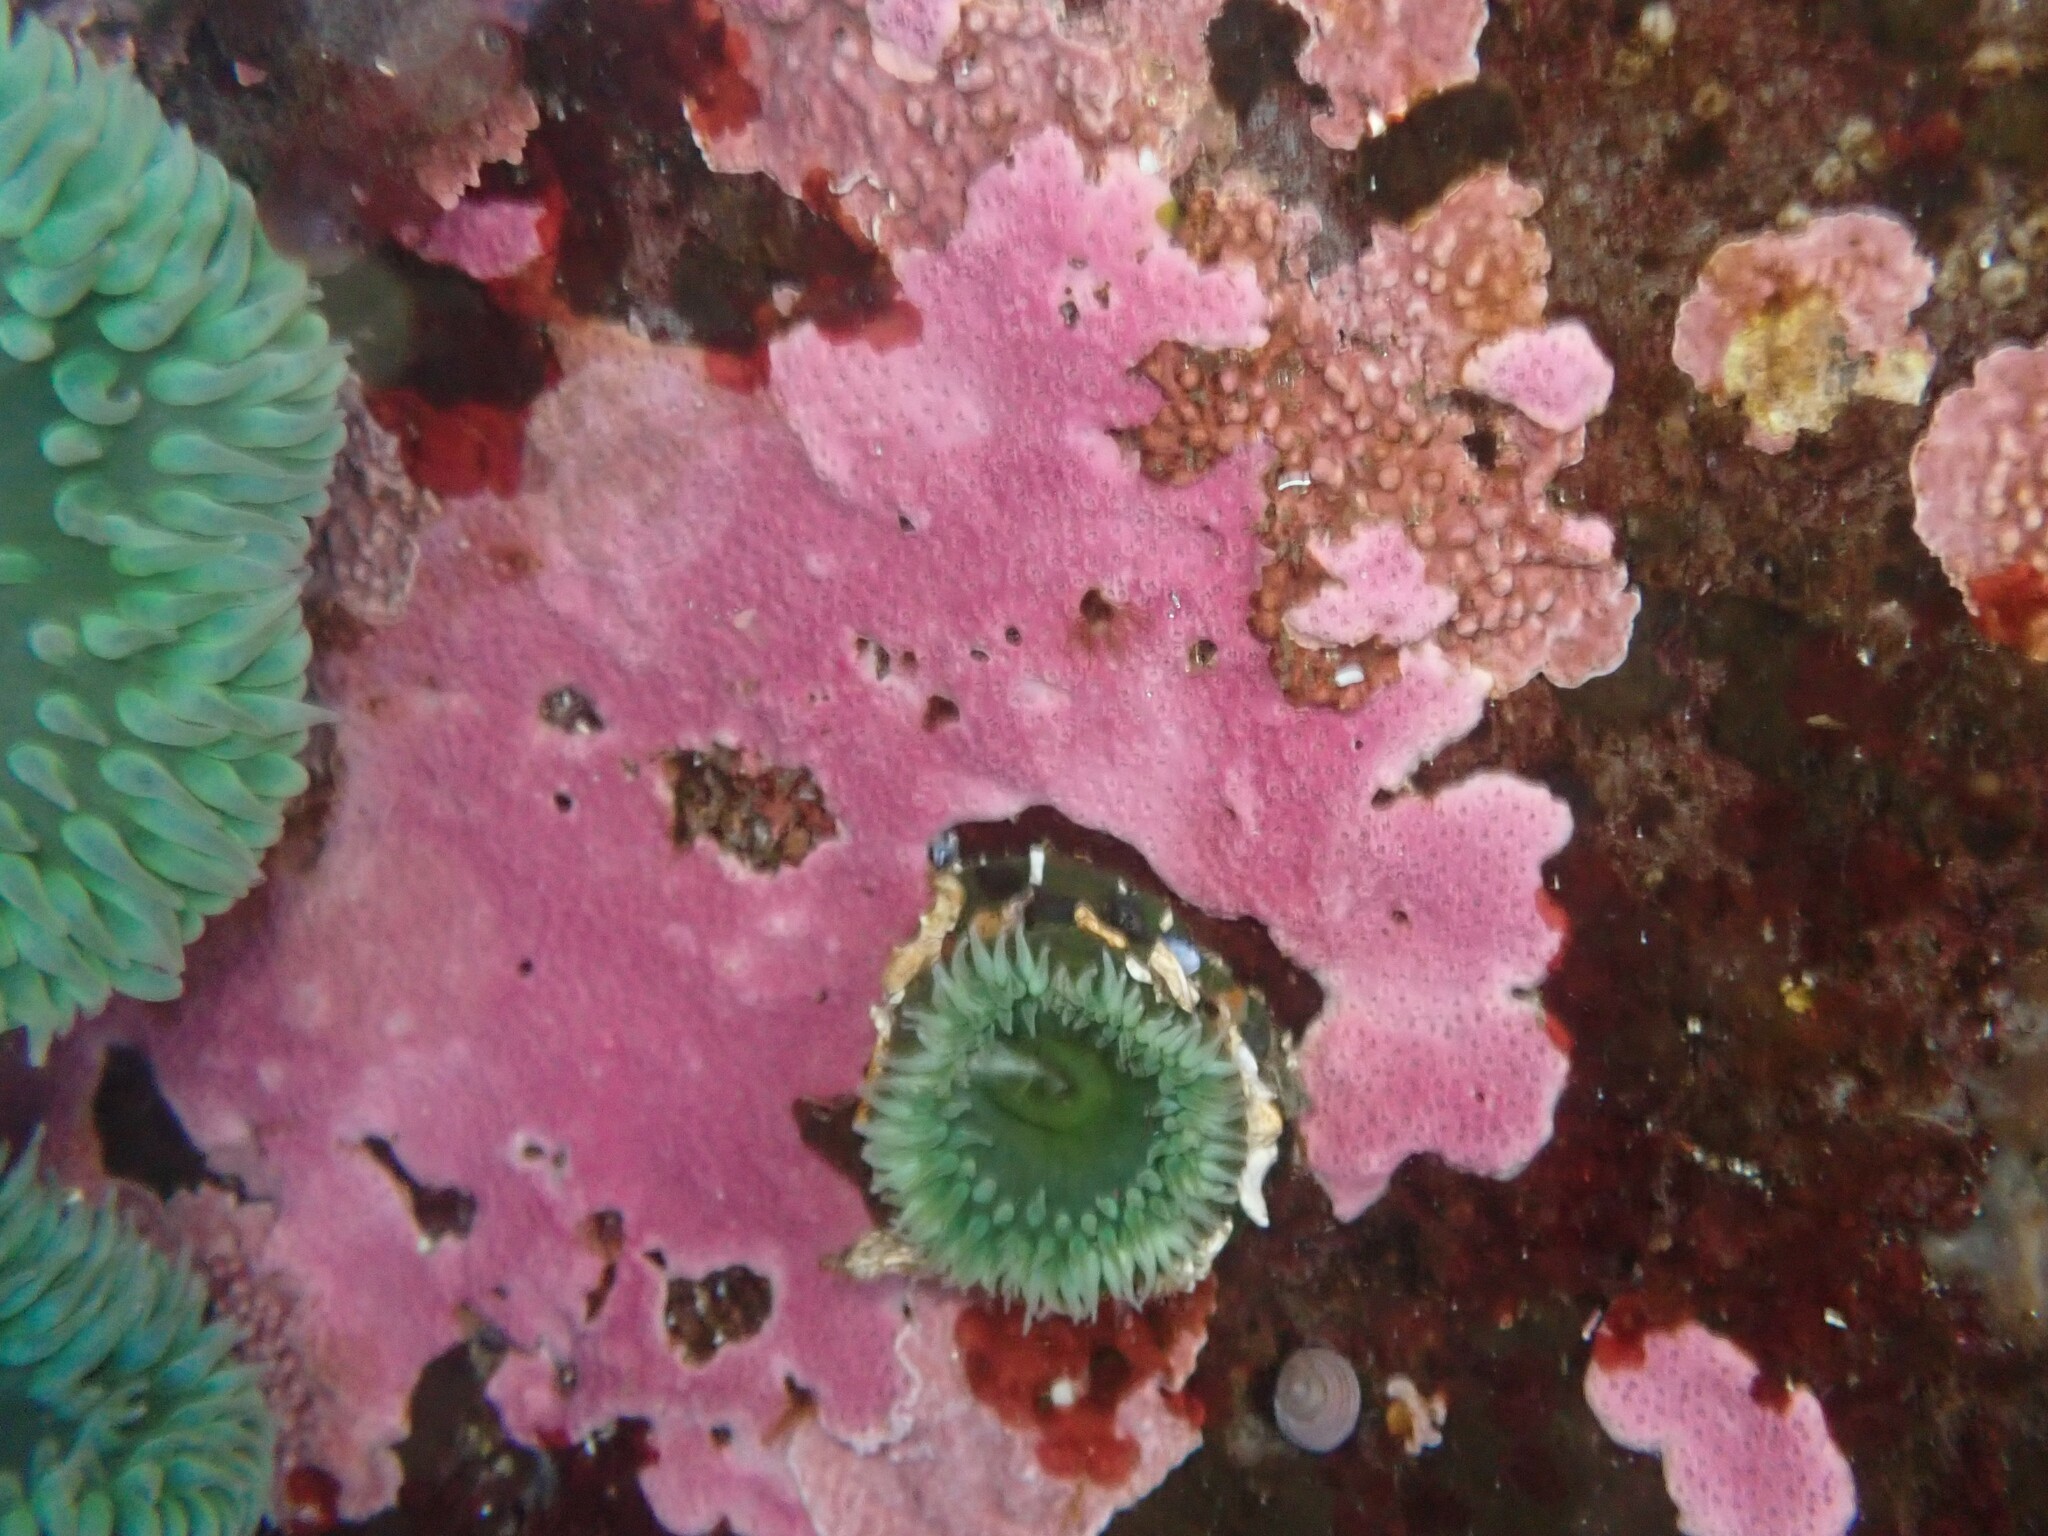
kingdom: Animalia
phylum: Cnidaria
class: Hydrozoa
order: Anthoathecata
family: Stylasteridae
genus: Stylantheca
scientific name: Stylantheca papillosa
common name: Corrugated lace hydrocoral
